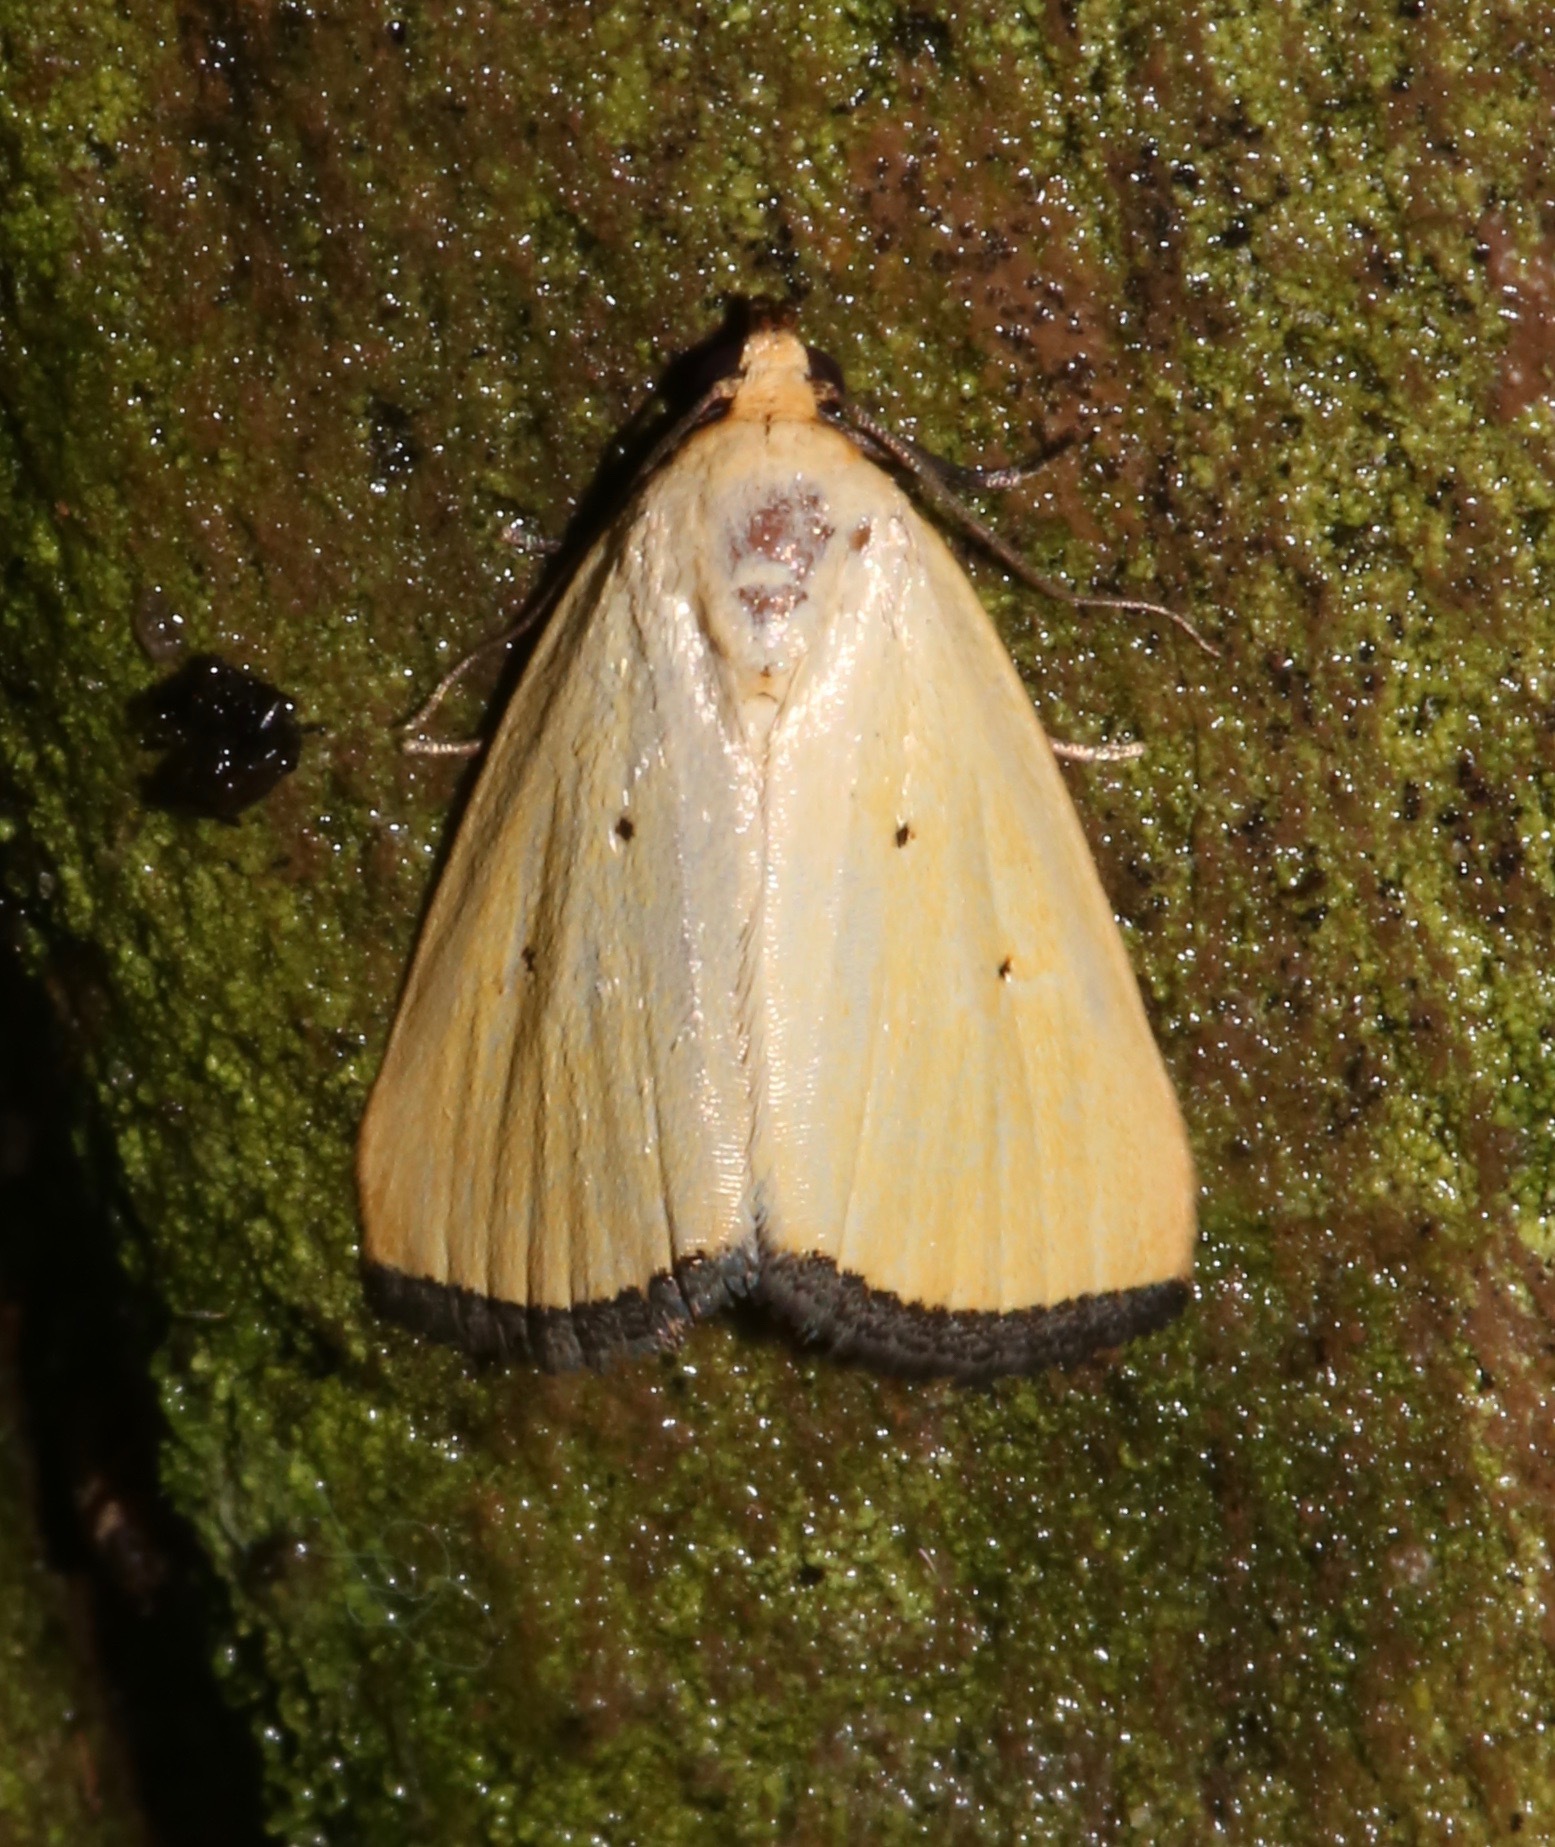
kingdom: Animalia
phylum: Arthropoda
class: Insecta
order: Lepidoptera
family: Noctuidae
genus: Marimatha
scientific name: Marimatha nigrofimbria
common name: Black-bordered lemon moth
